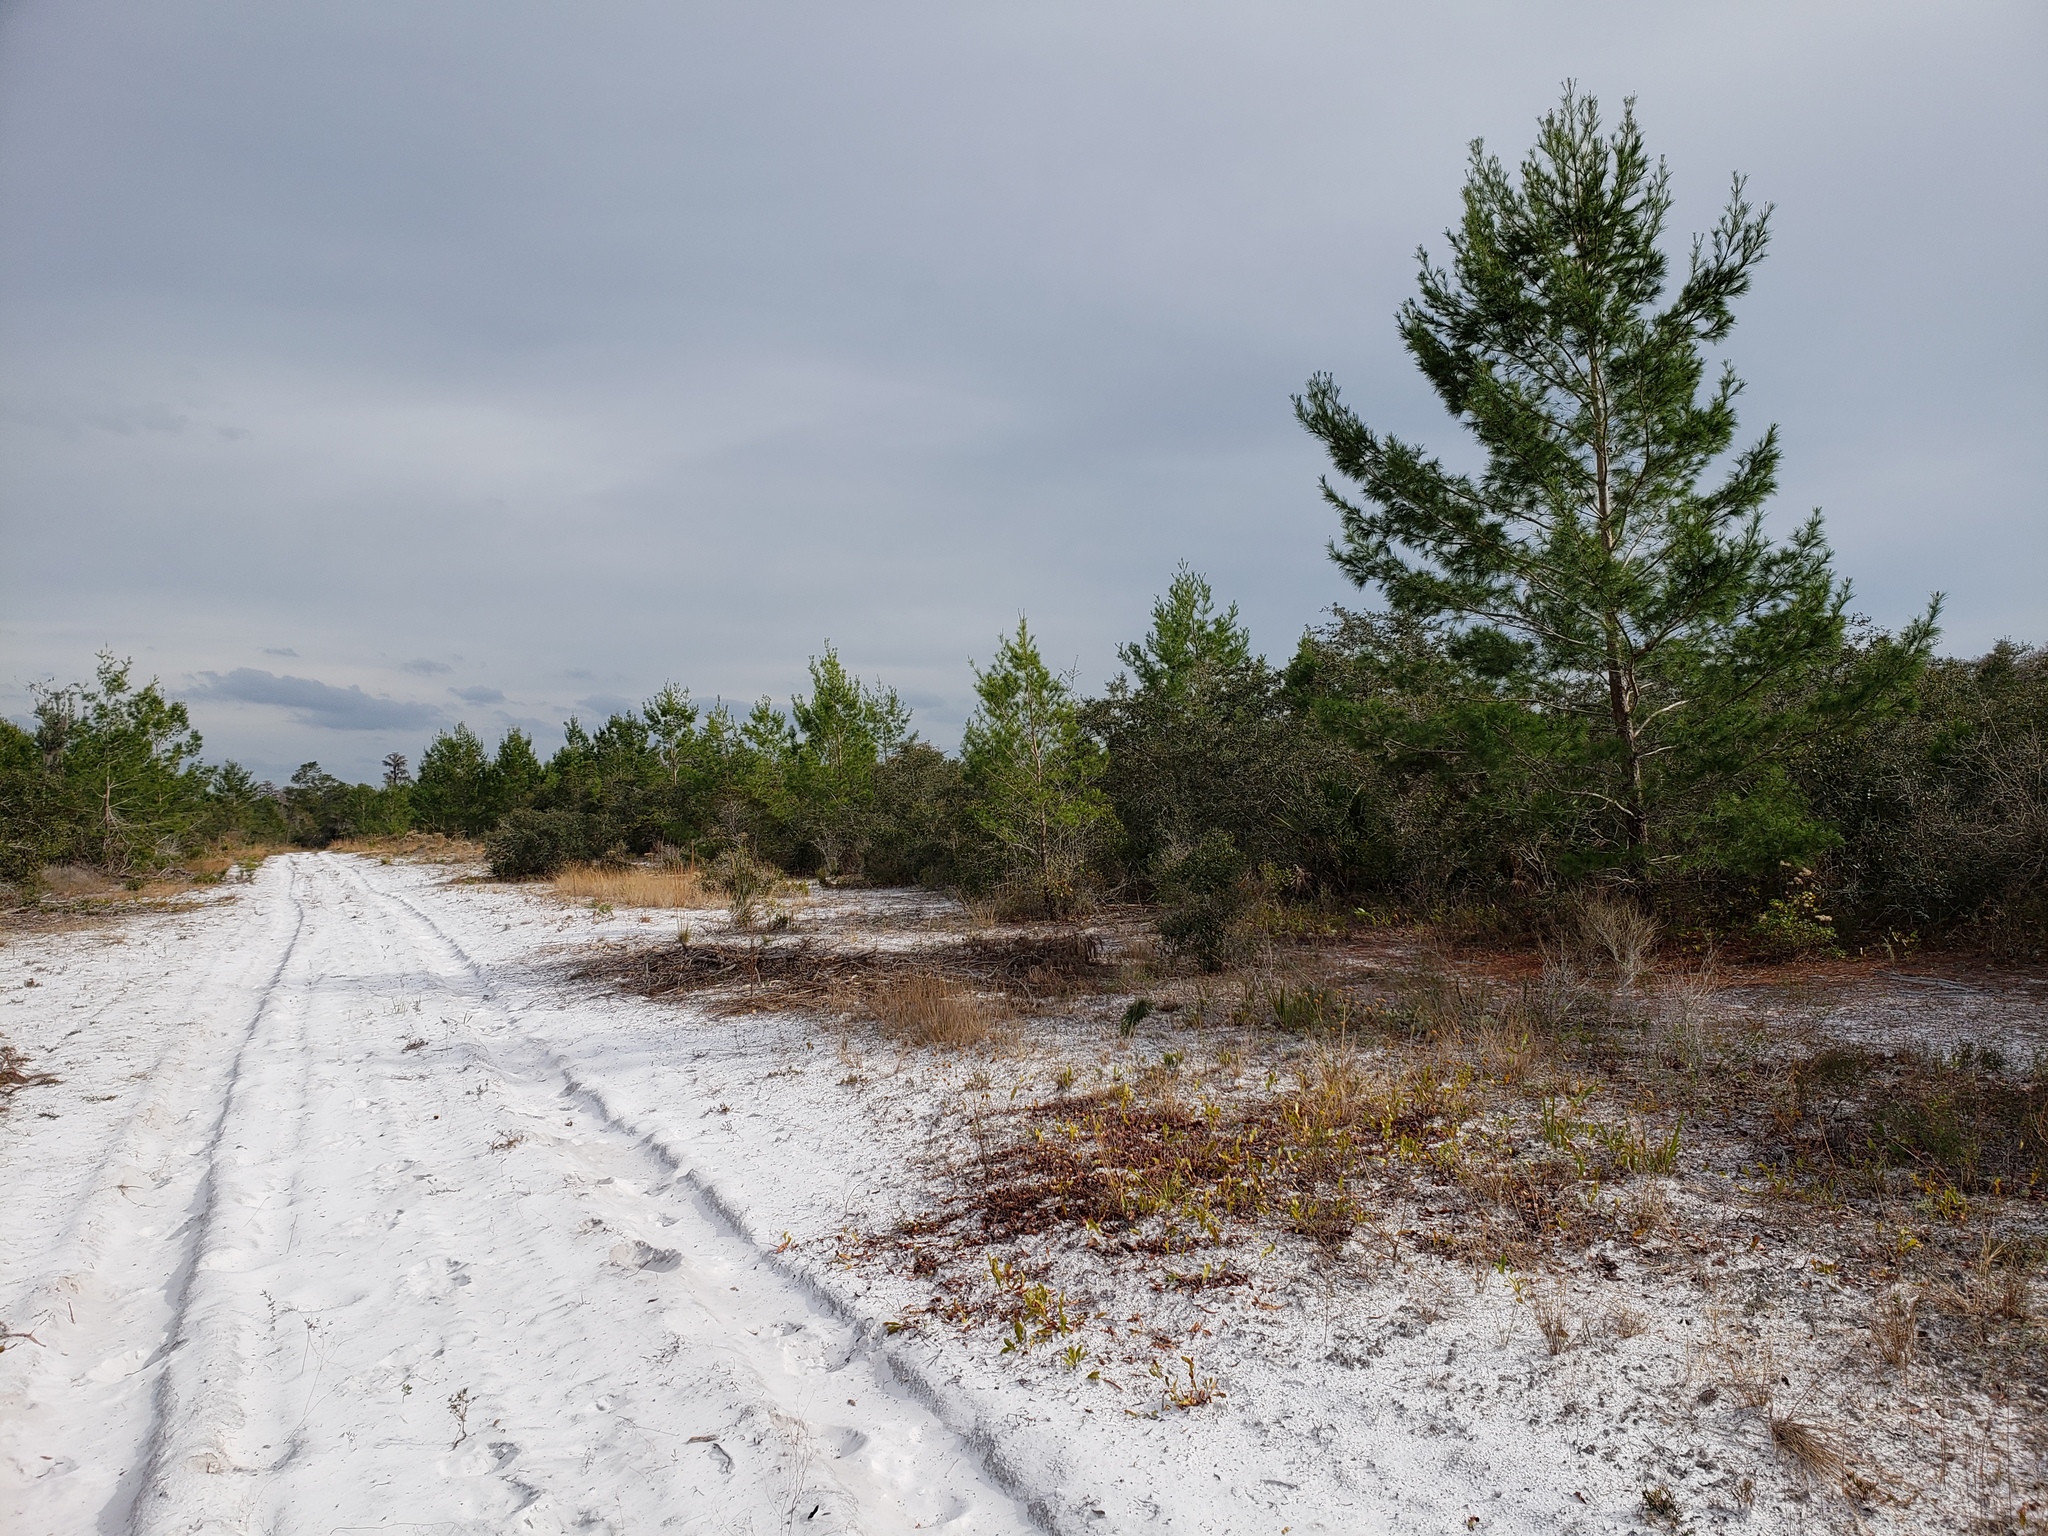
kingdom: Plantae
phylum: Tracheophyta
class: Pinopsida
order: Pinales
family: Pinaceae
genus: Pinus
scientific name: Pinus clausa
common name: Sand pine
